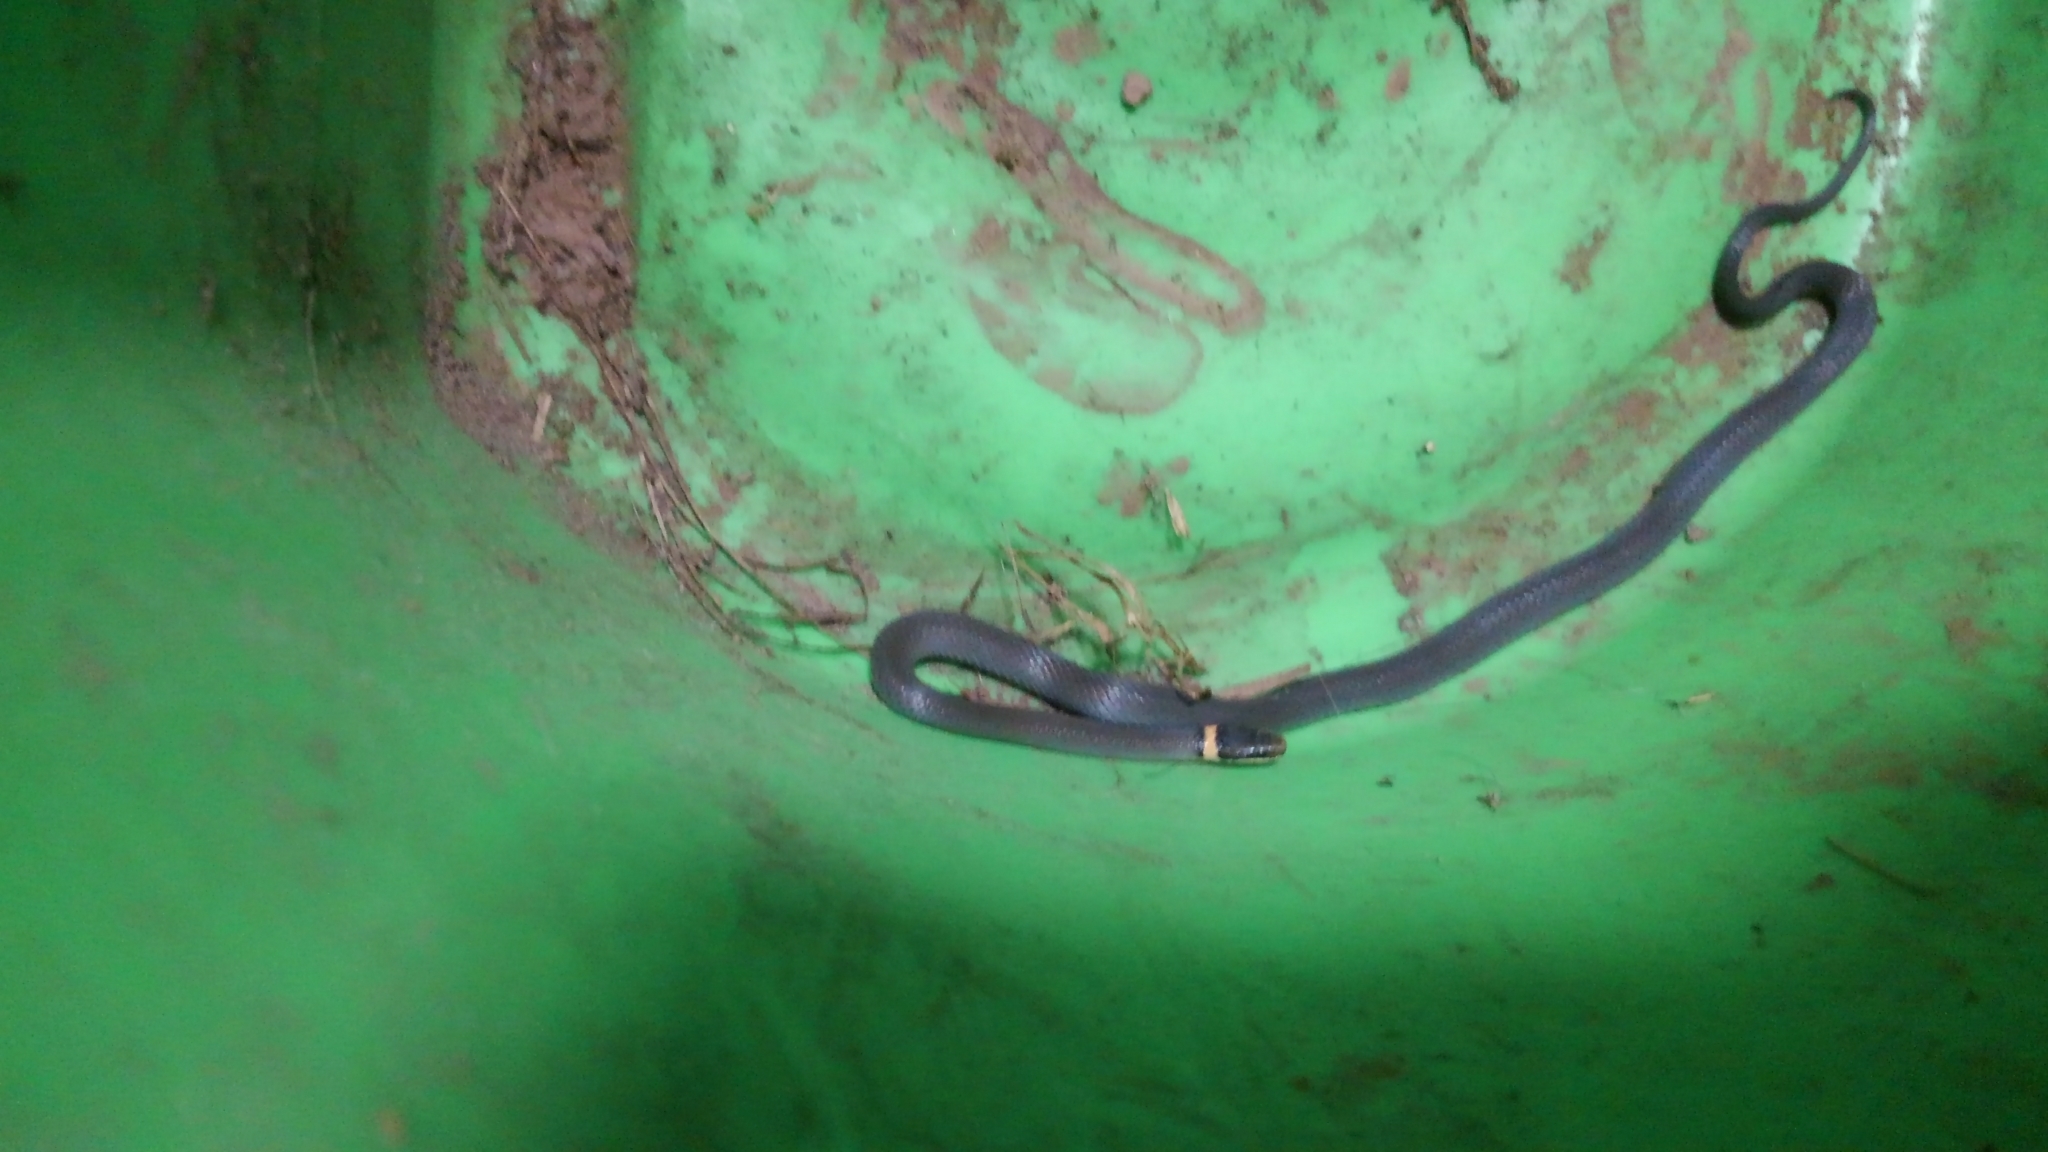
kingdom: Animalia
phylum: Chordata
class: Squamata
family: Colubridae
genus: Diadophis
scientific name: Diadophis punctatus
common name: Ringneck snake
